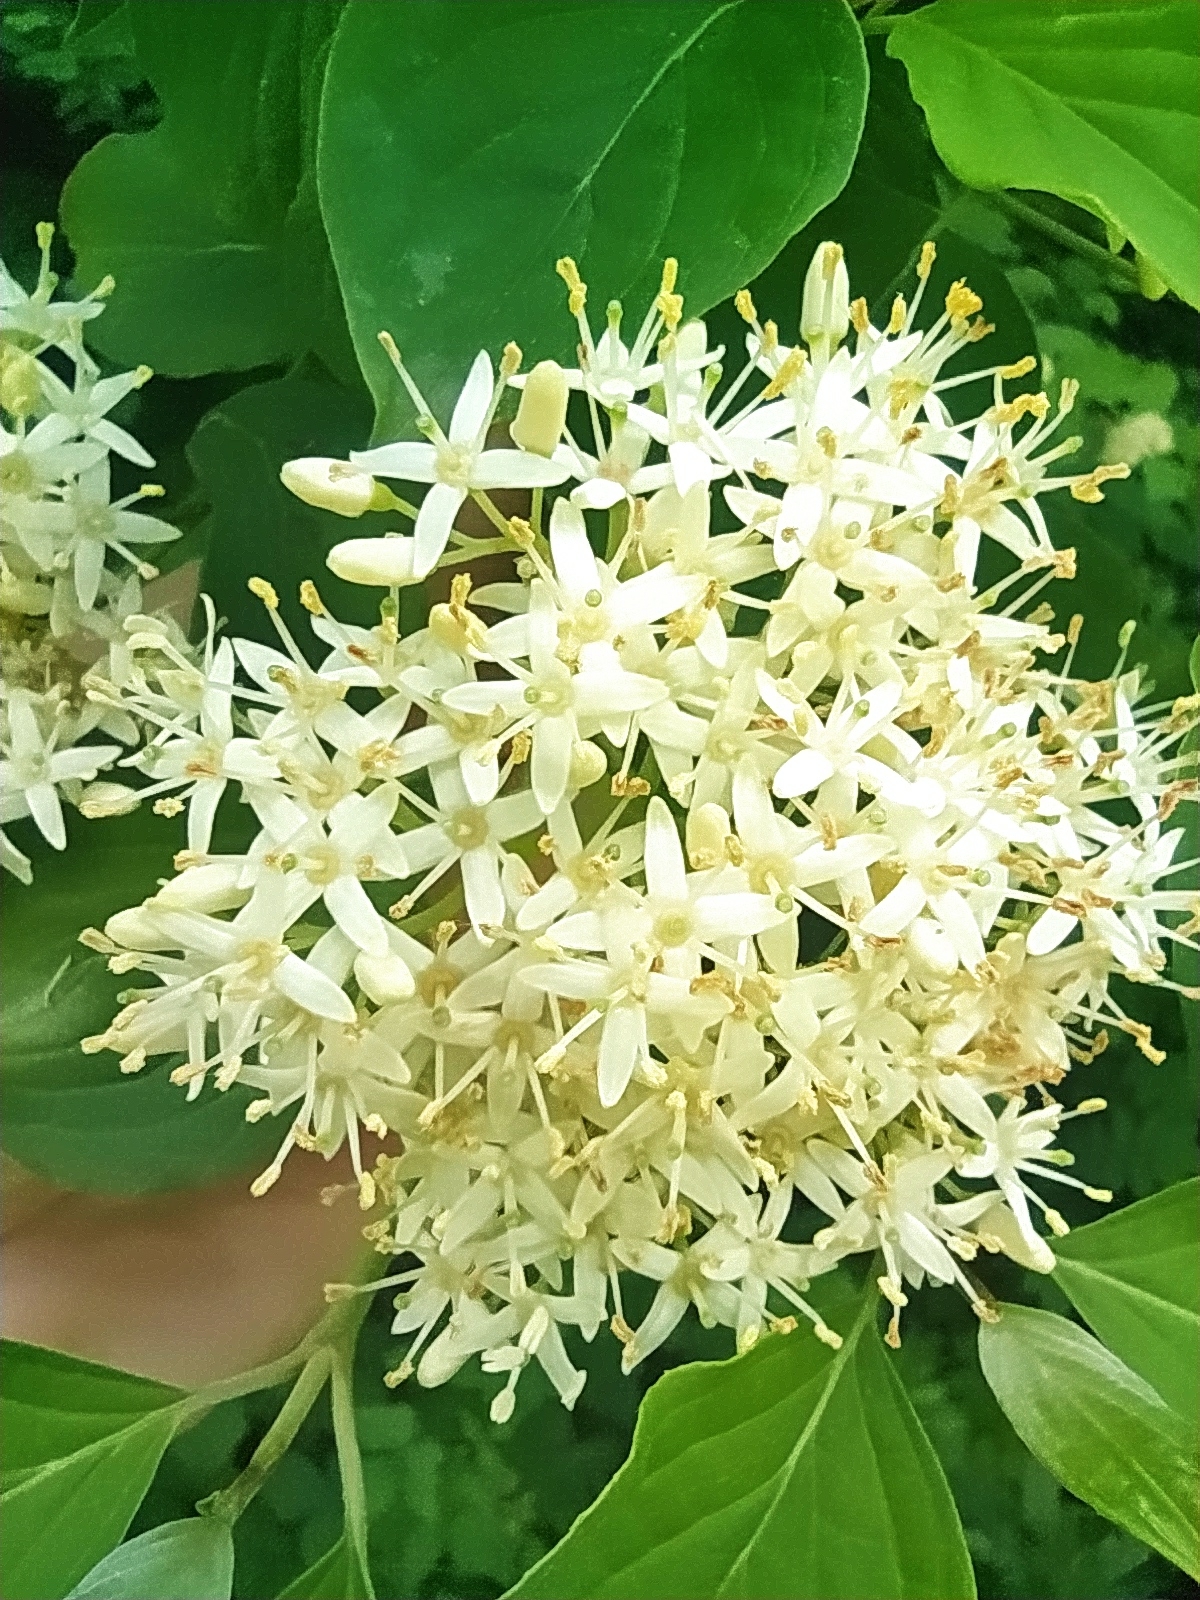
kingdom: Plantae
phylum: Tracheophyta
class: Magnoliopsida
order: Cornales
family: Cornaceae
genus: Cornus
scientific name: Cornus sanguinea
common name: Dogwood
